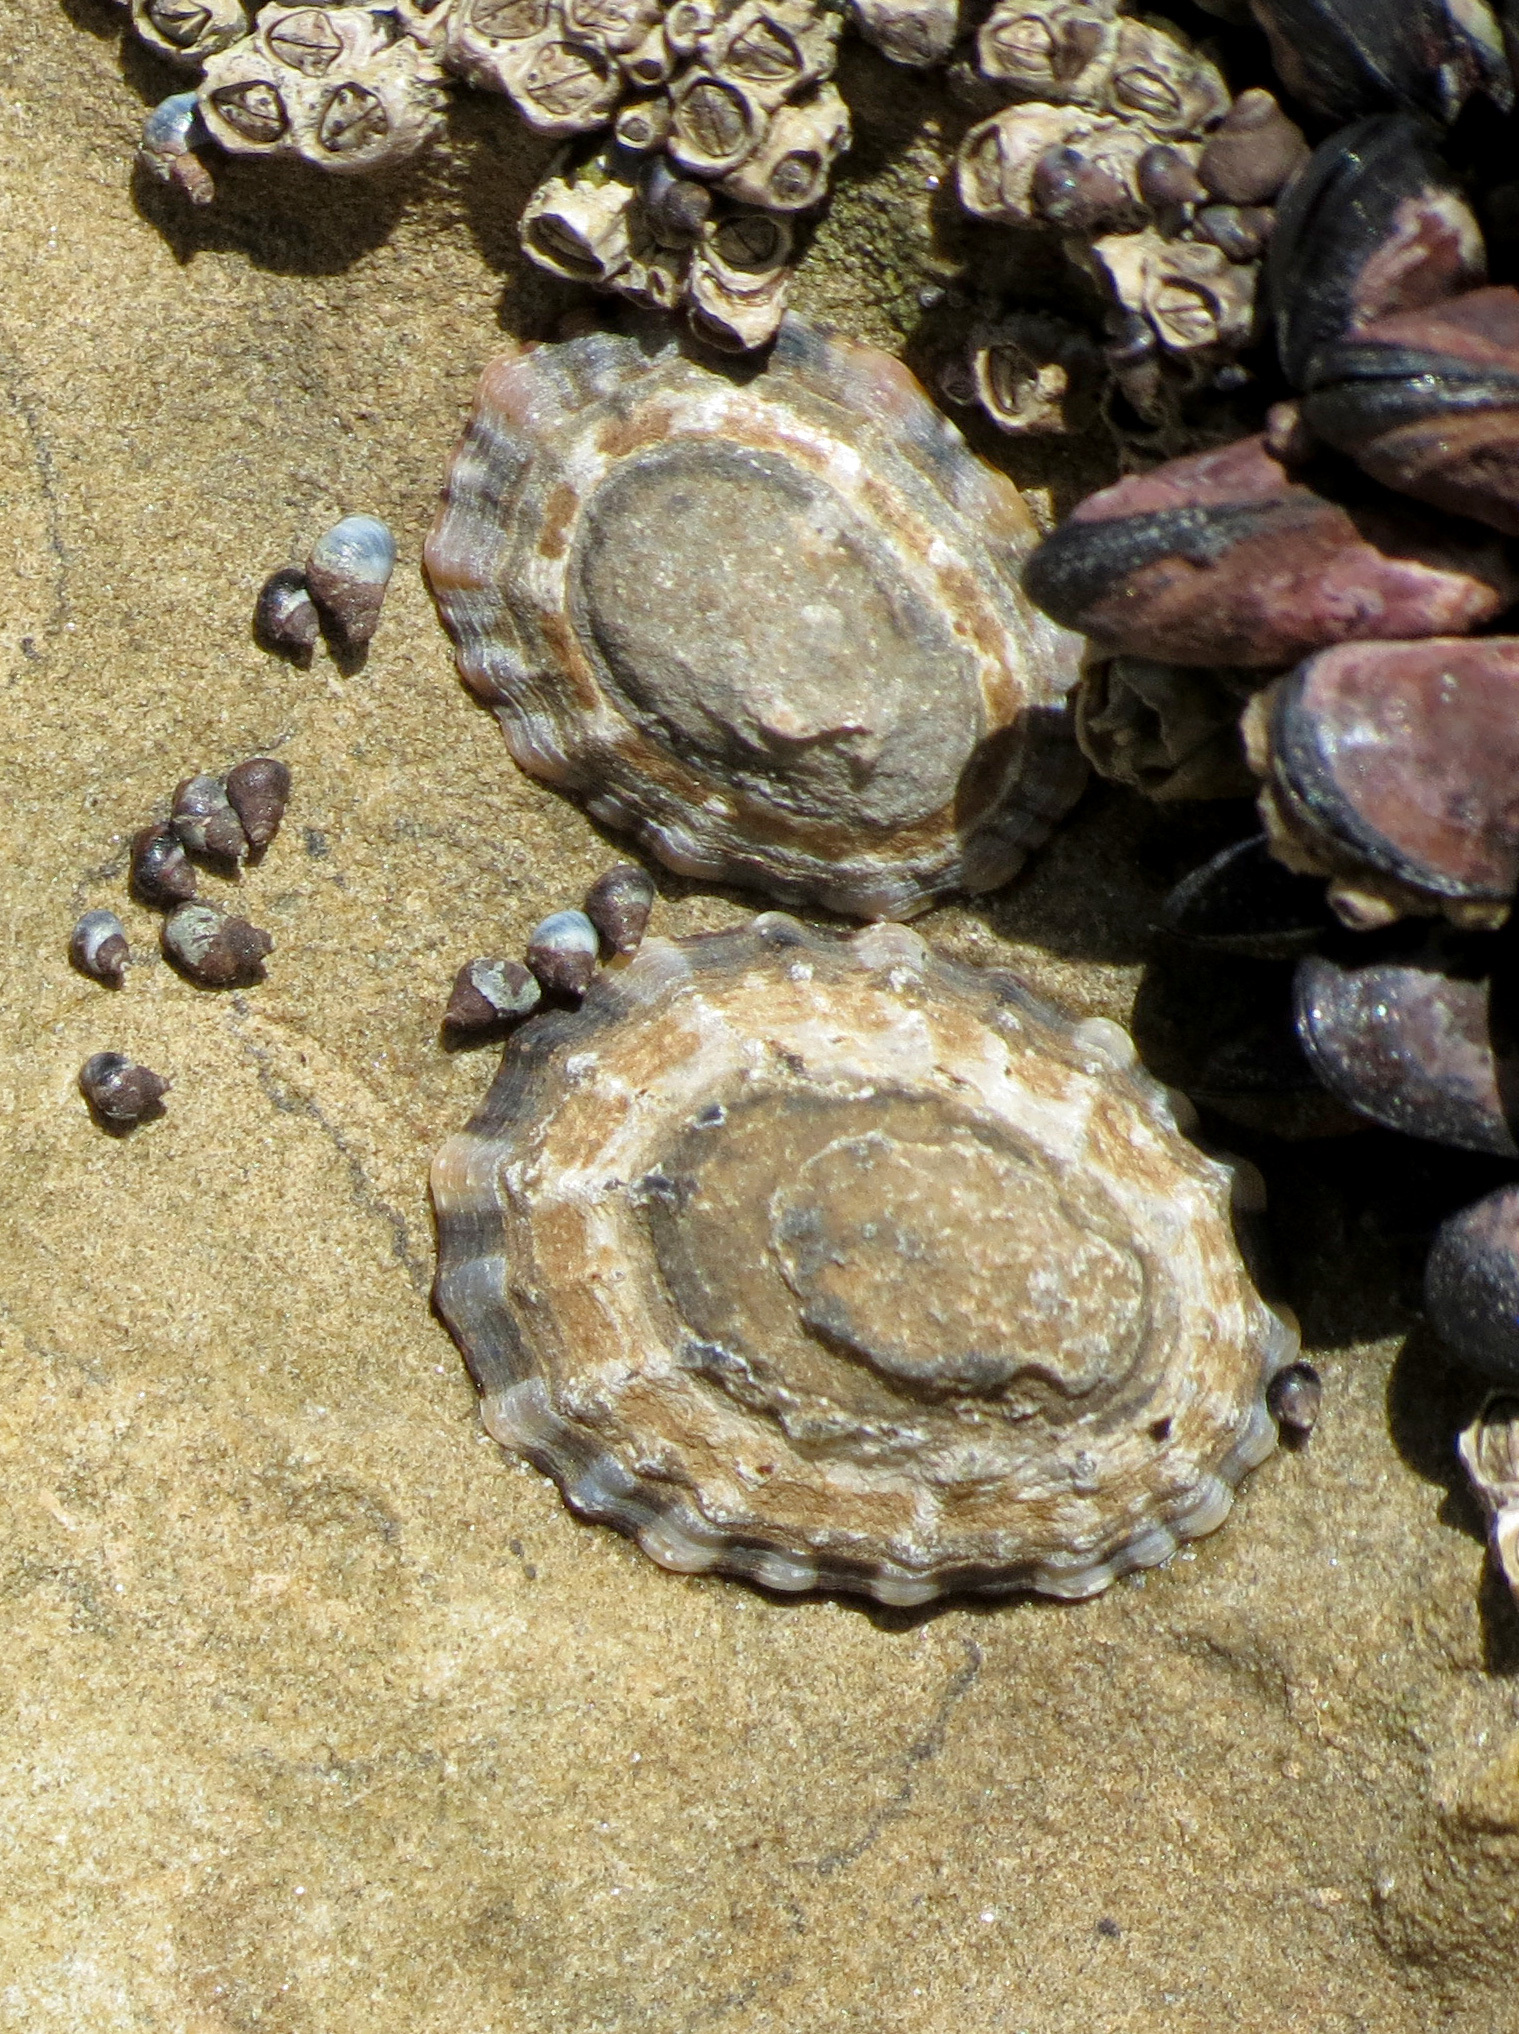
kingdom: Animalia
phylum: Mollusca
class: Gastropoda
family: Nacellidae
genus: Cellana
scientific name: Cellana ornata
